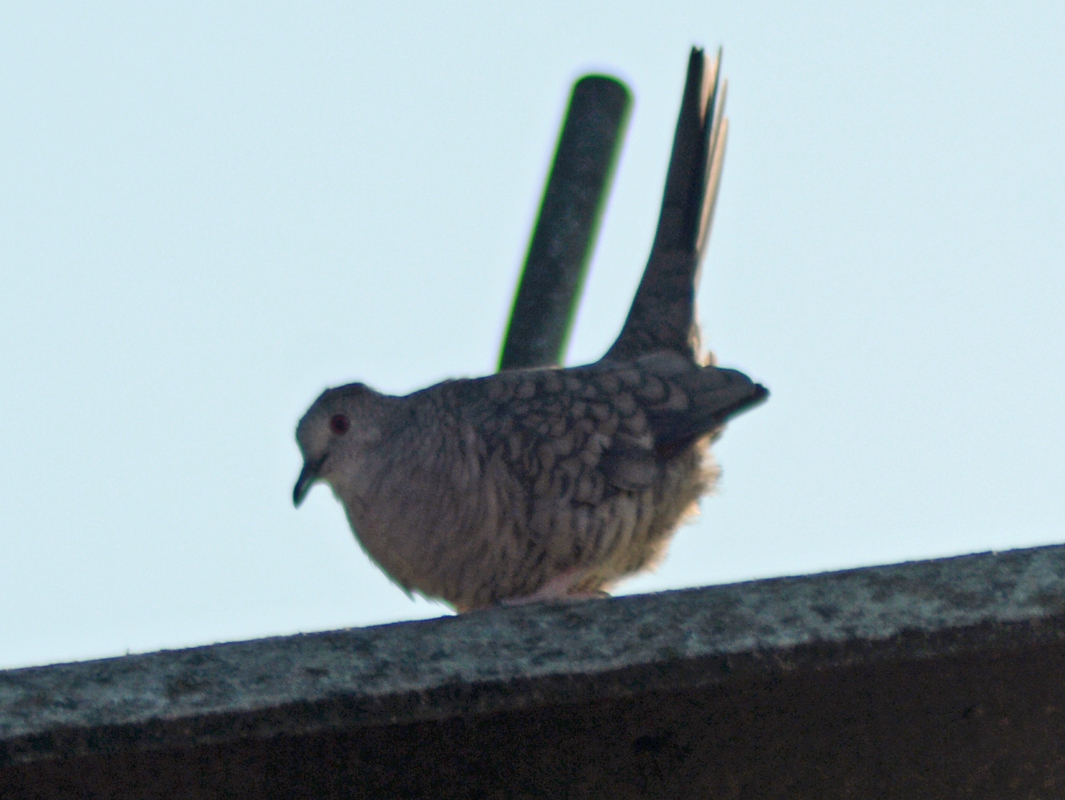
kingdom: Animalia
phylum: Chordata
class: Aves
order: Columbiformes
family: Columbidae
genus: Columbina
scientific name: Columbina inca
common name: Inca dove
